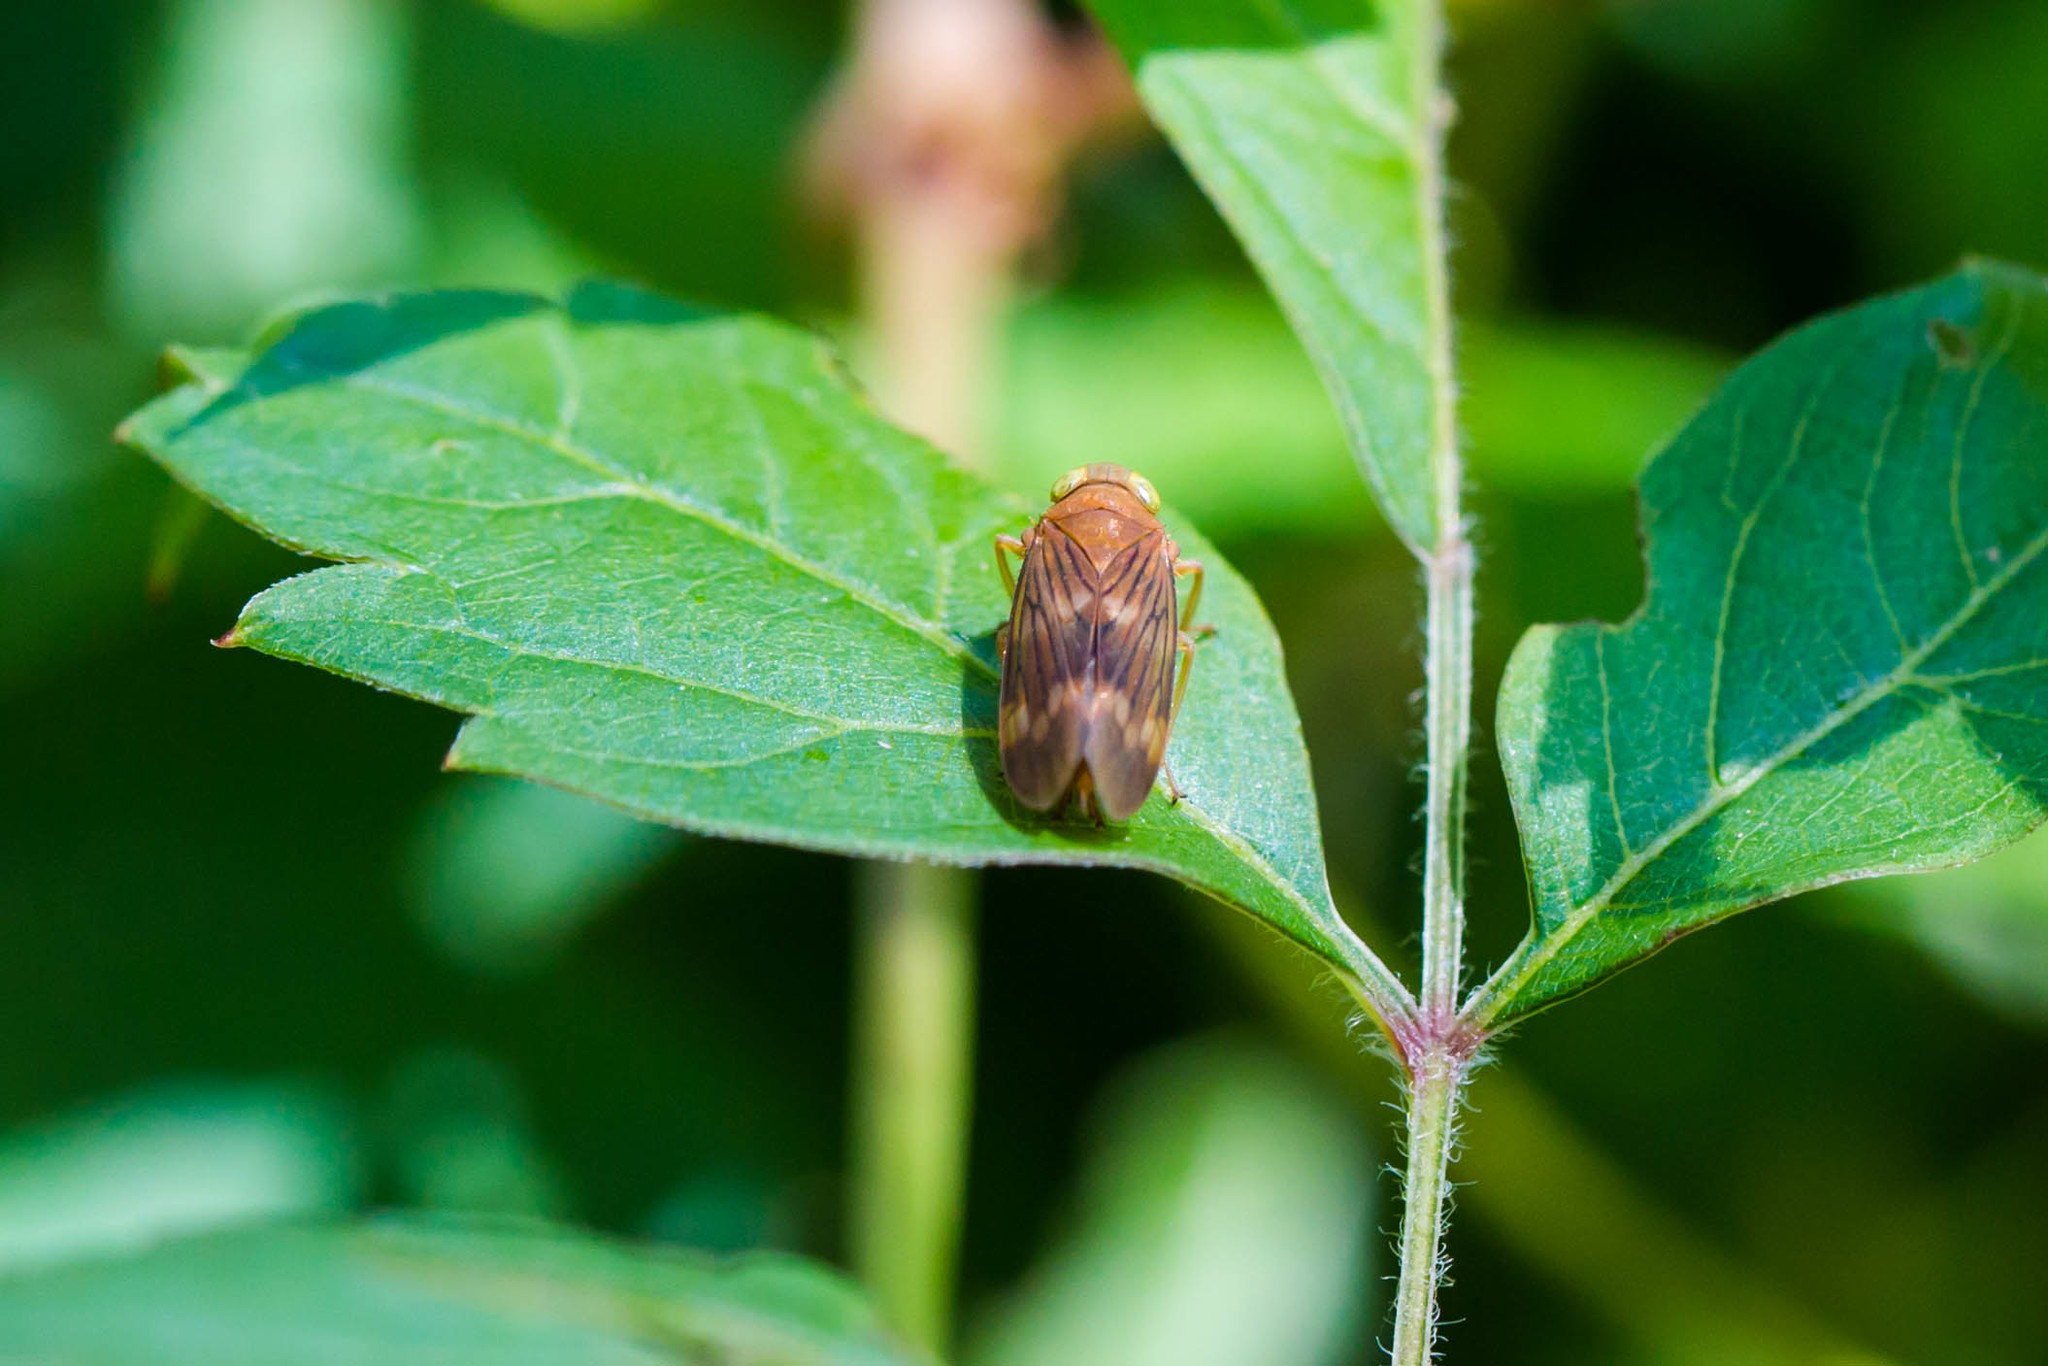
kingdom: Animalia
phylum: Arthropoda
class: Insecta
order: Hemiptera
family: Cicadellidae
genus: Jikradia
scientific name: Jikradia olitoria
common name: Coppery leafhopper
